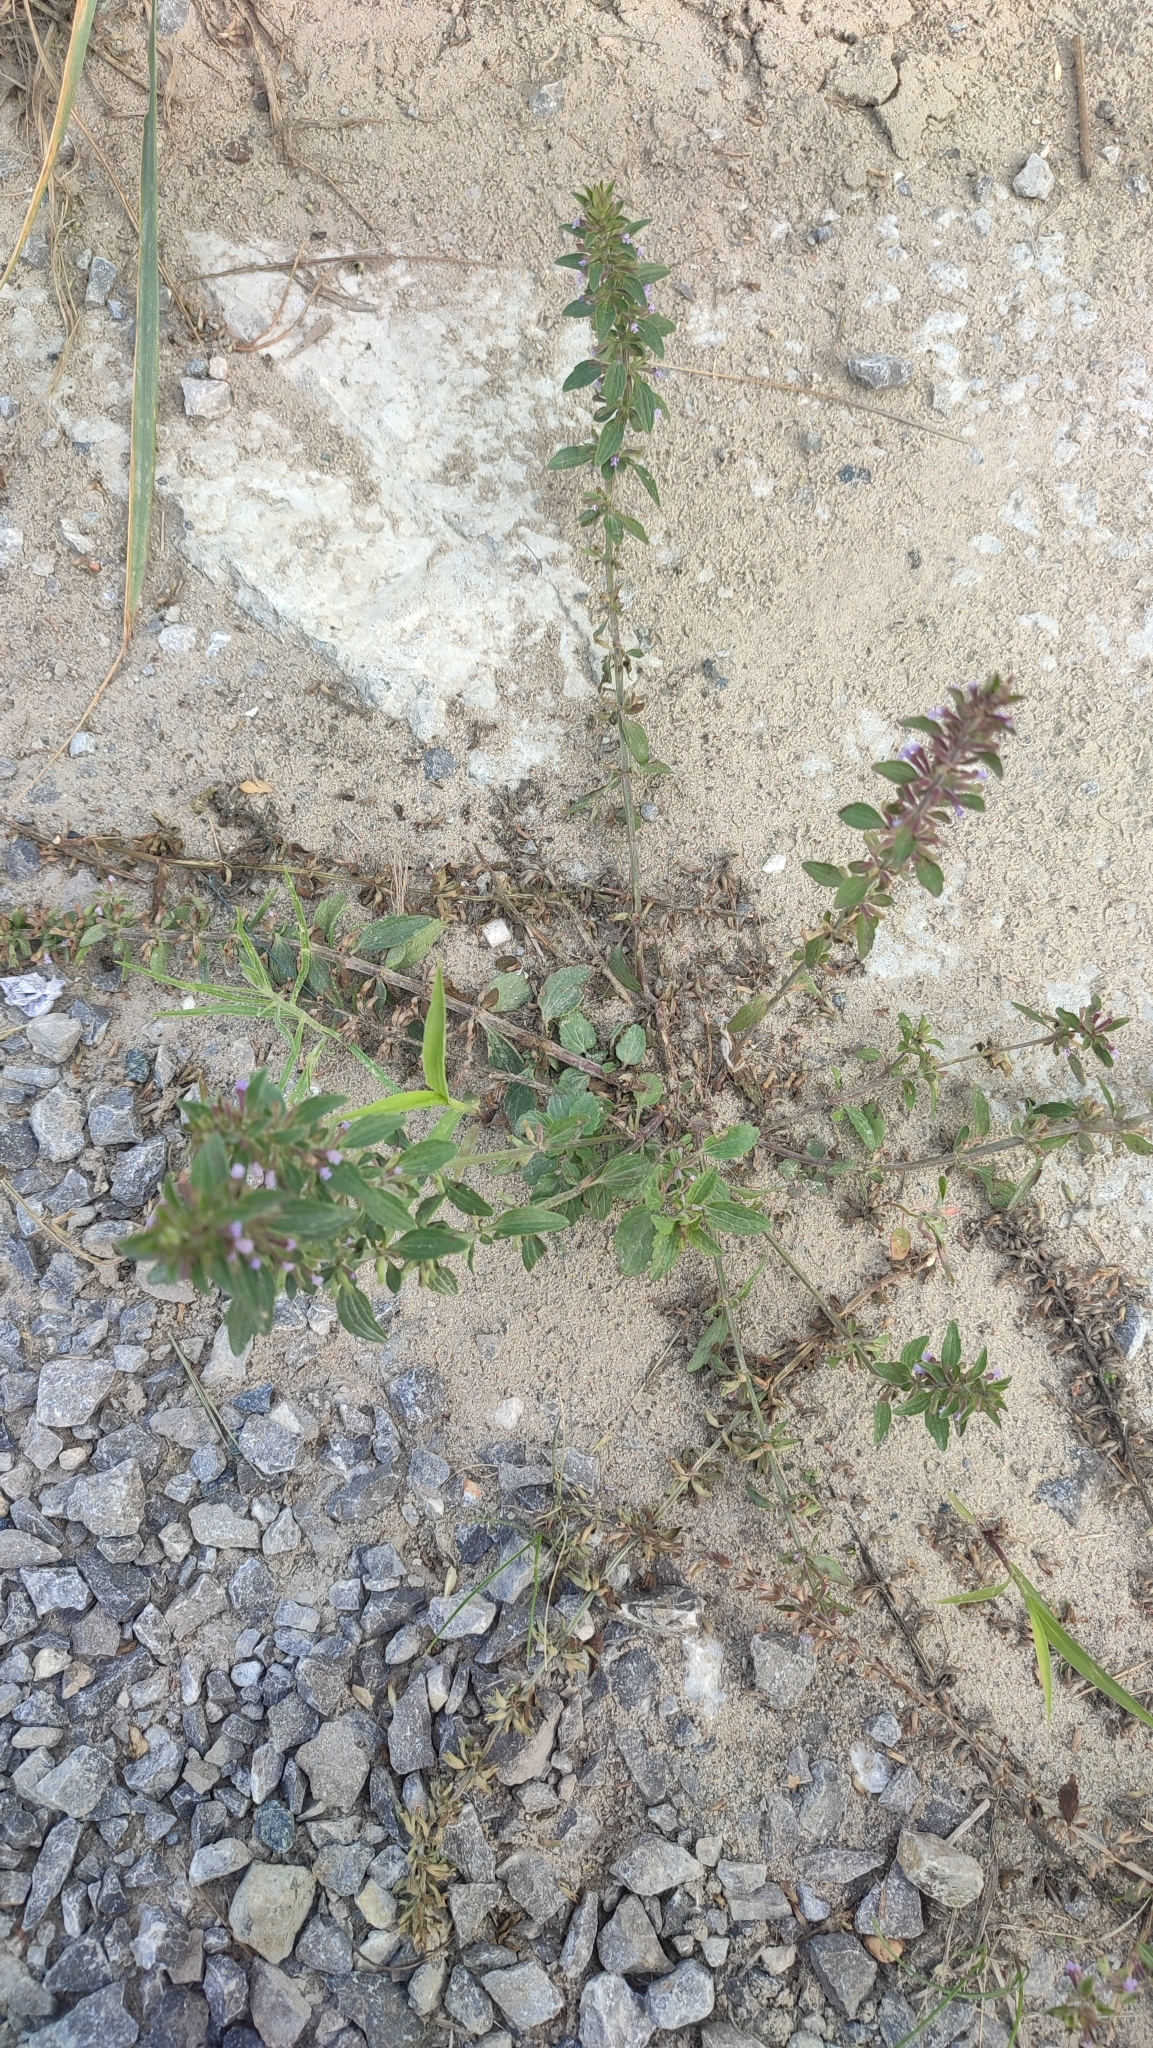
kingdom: Plantae
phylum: Tracheophyta
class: Magnoliopsida
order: Lamiales
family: Lamiaceae
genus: Dracocephalum
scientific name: Dracocephalum thymiflorum
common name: Thymeleaf dragonhead
